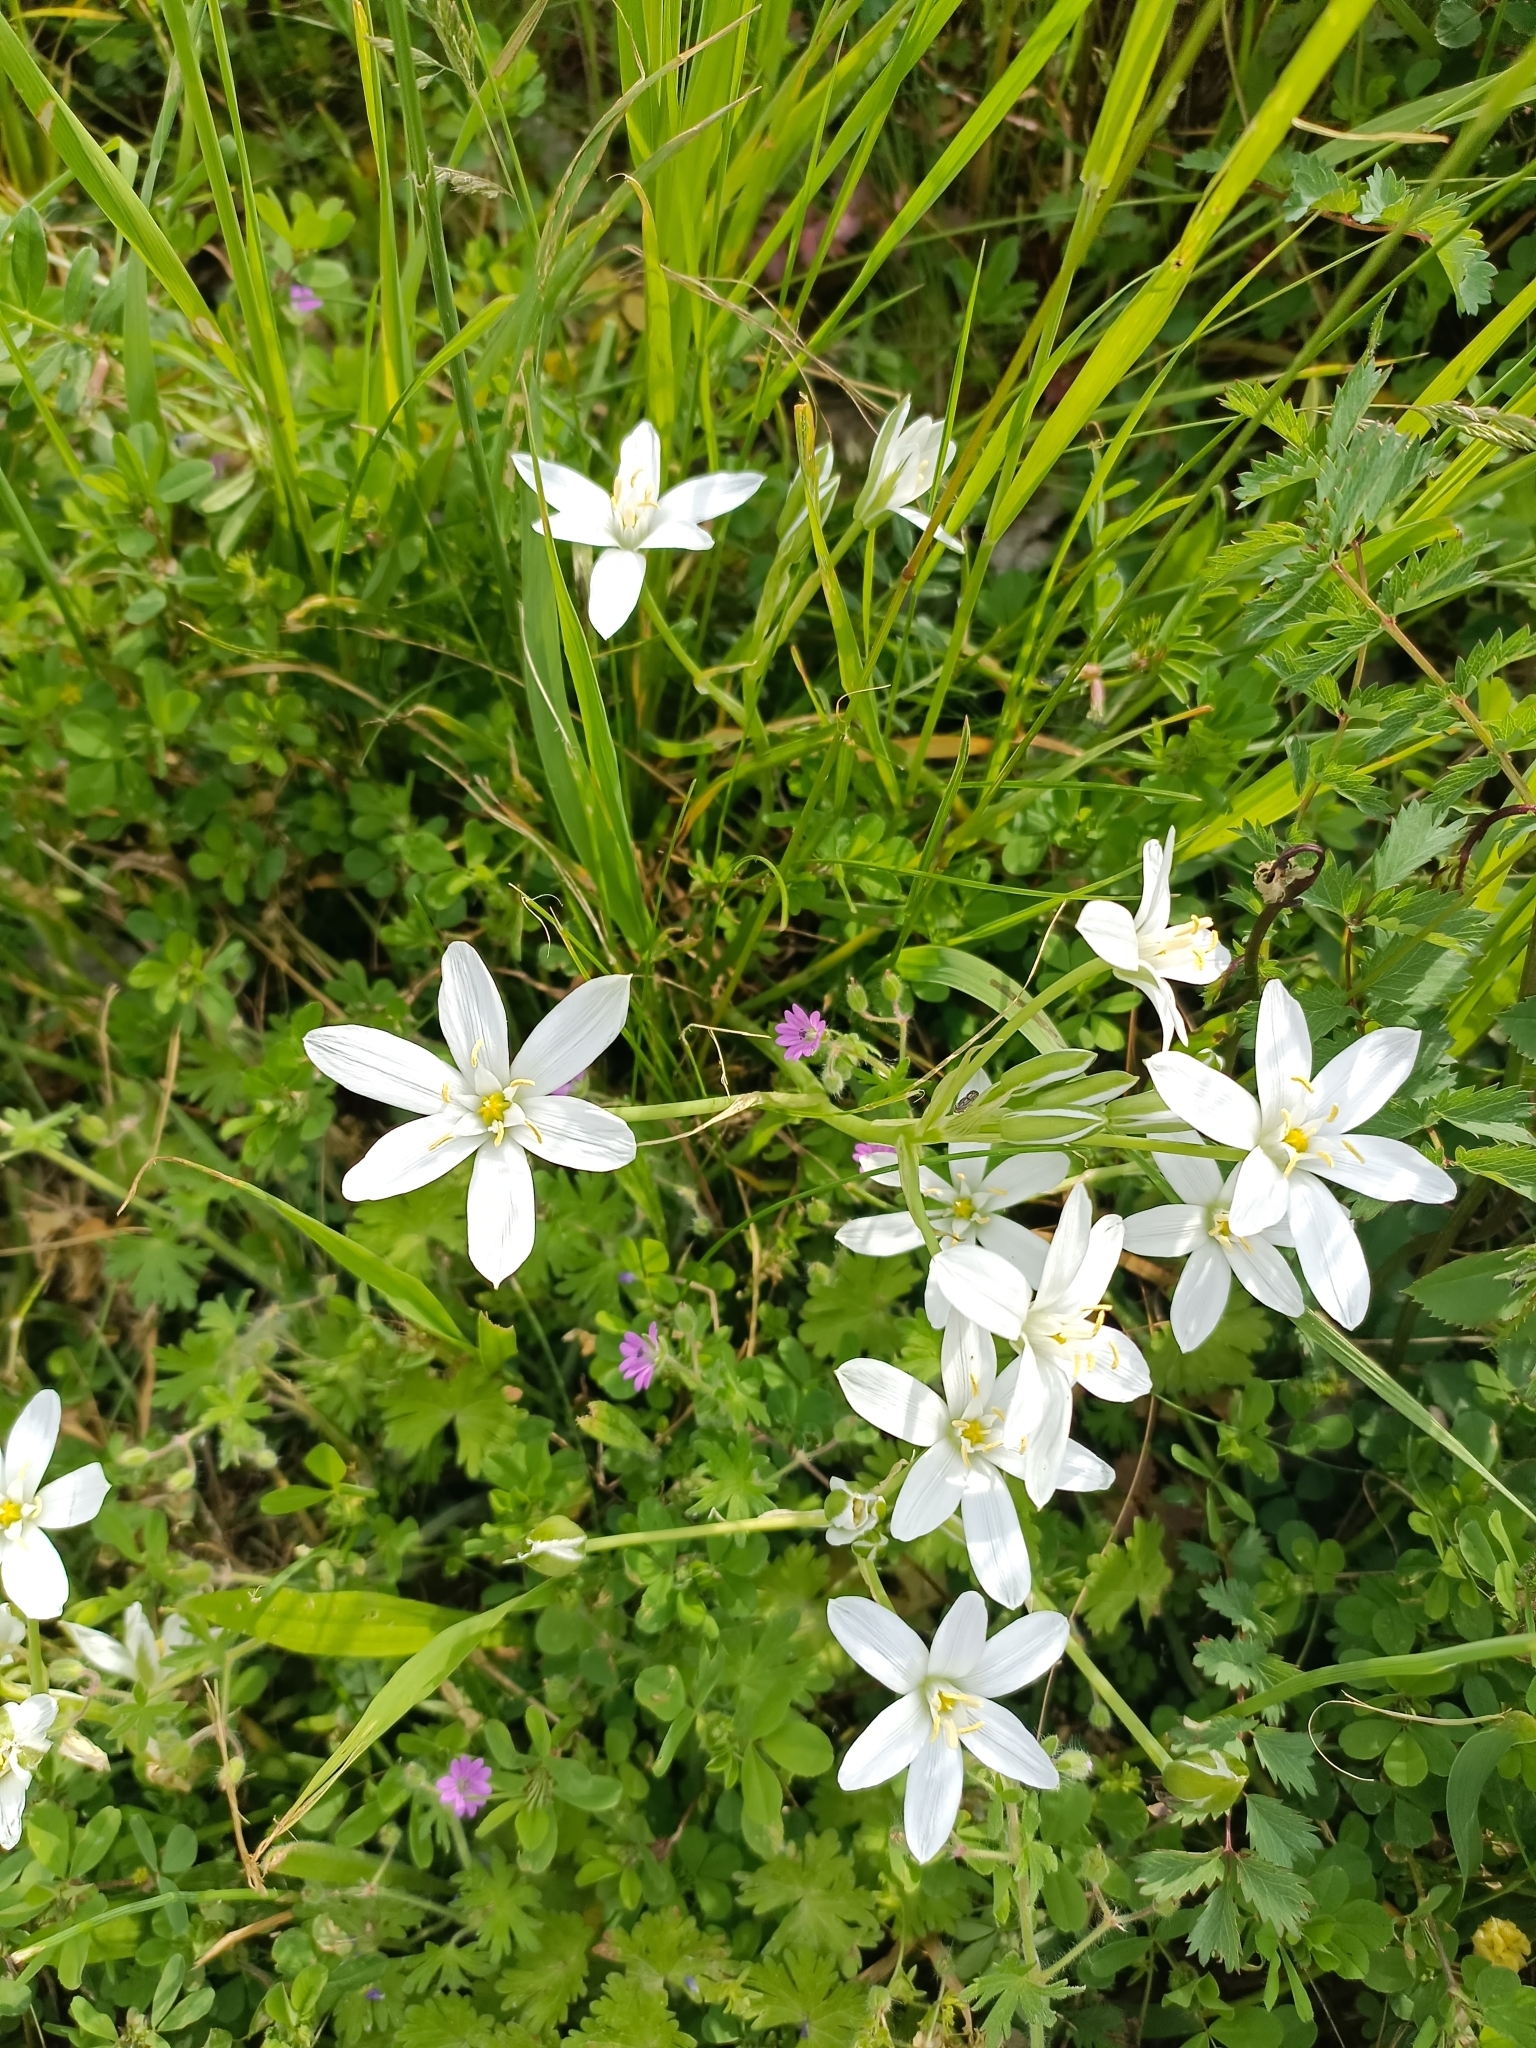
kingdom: Plantae
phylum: Tracheophyta
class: Liliopsida
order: Asparagales
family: Asparagaceae
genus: Ornithogalum
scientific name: Ornithogalum umbellatum
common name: Garden star-of-bethlehem
